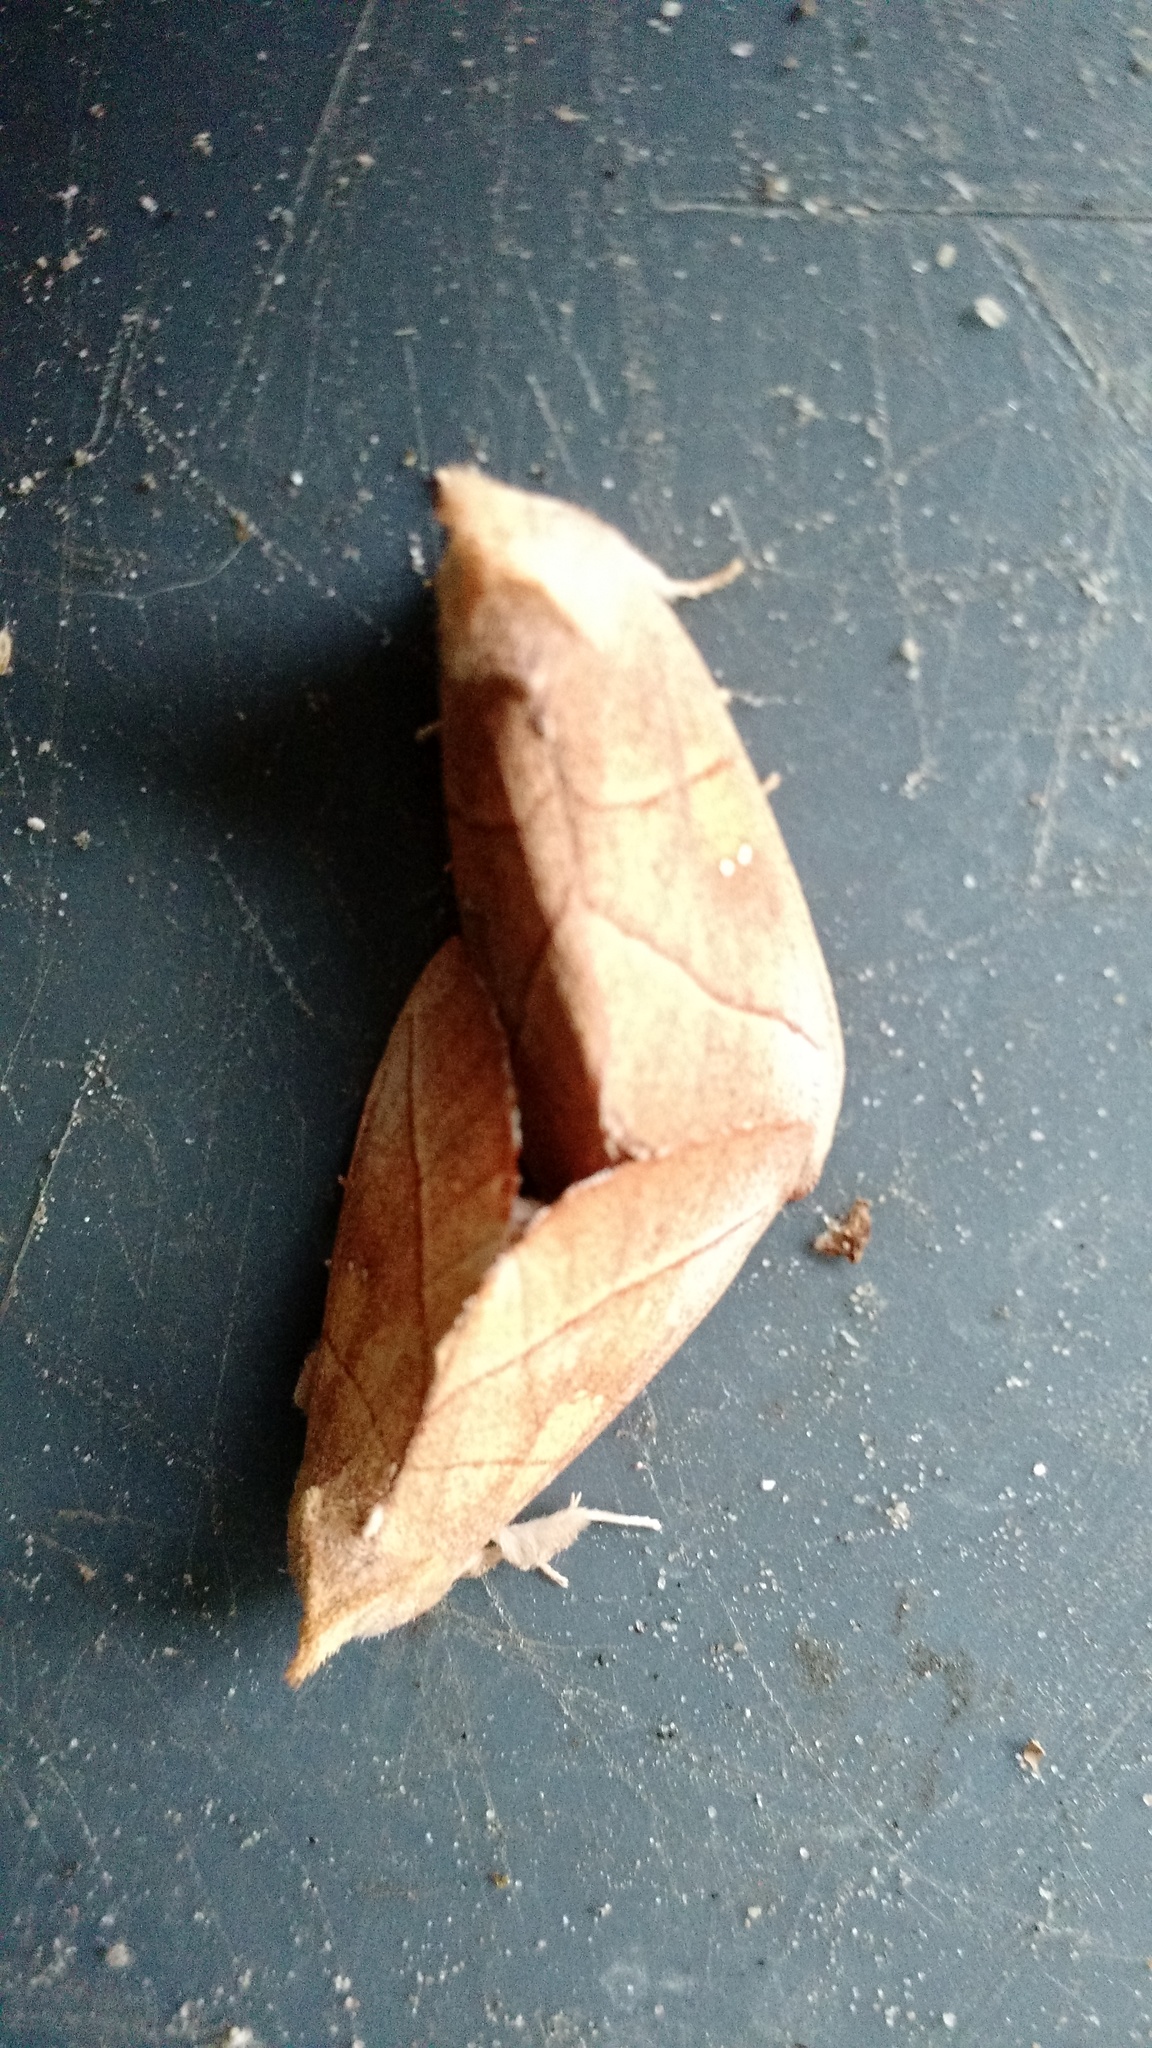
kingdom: Animalia
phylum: Arthropoda
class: Insecta
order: Lepidoptera
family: Notodontidae
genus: Nadata
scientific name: Nadata gibbosa
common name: White-dotted prominent
